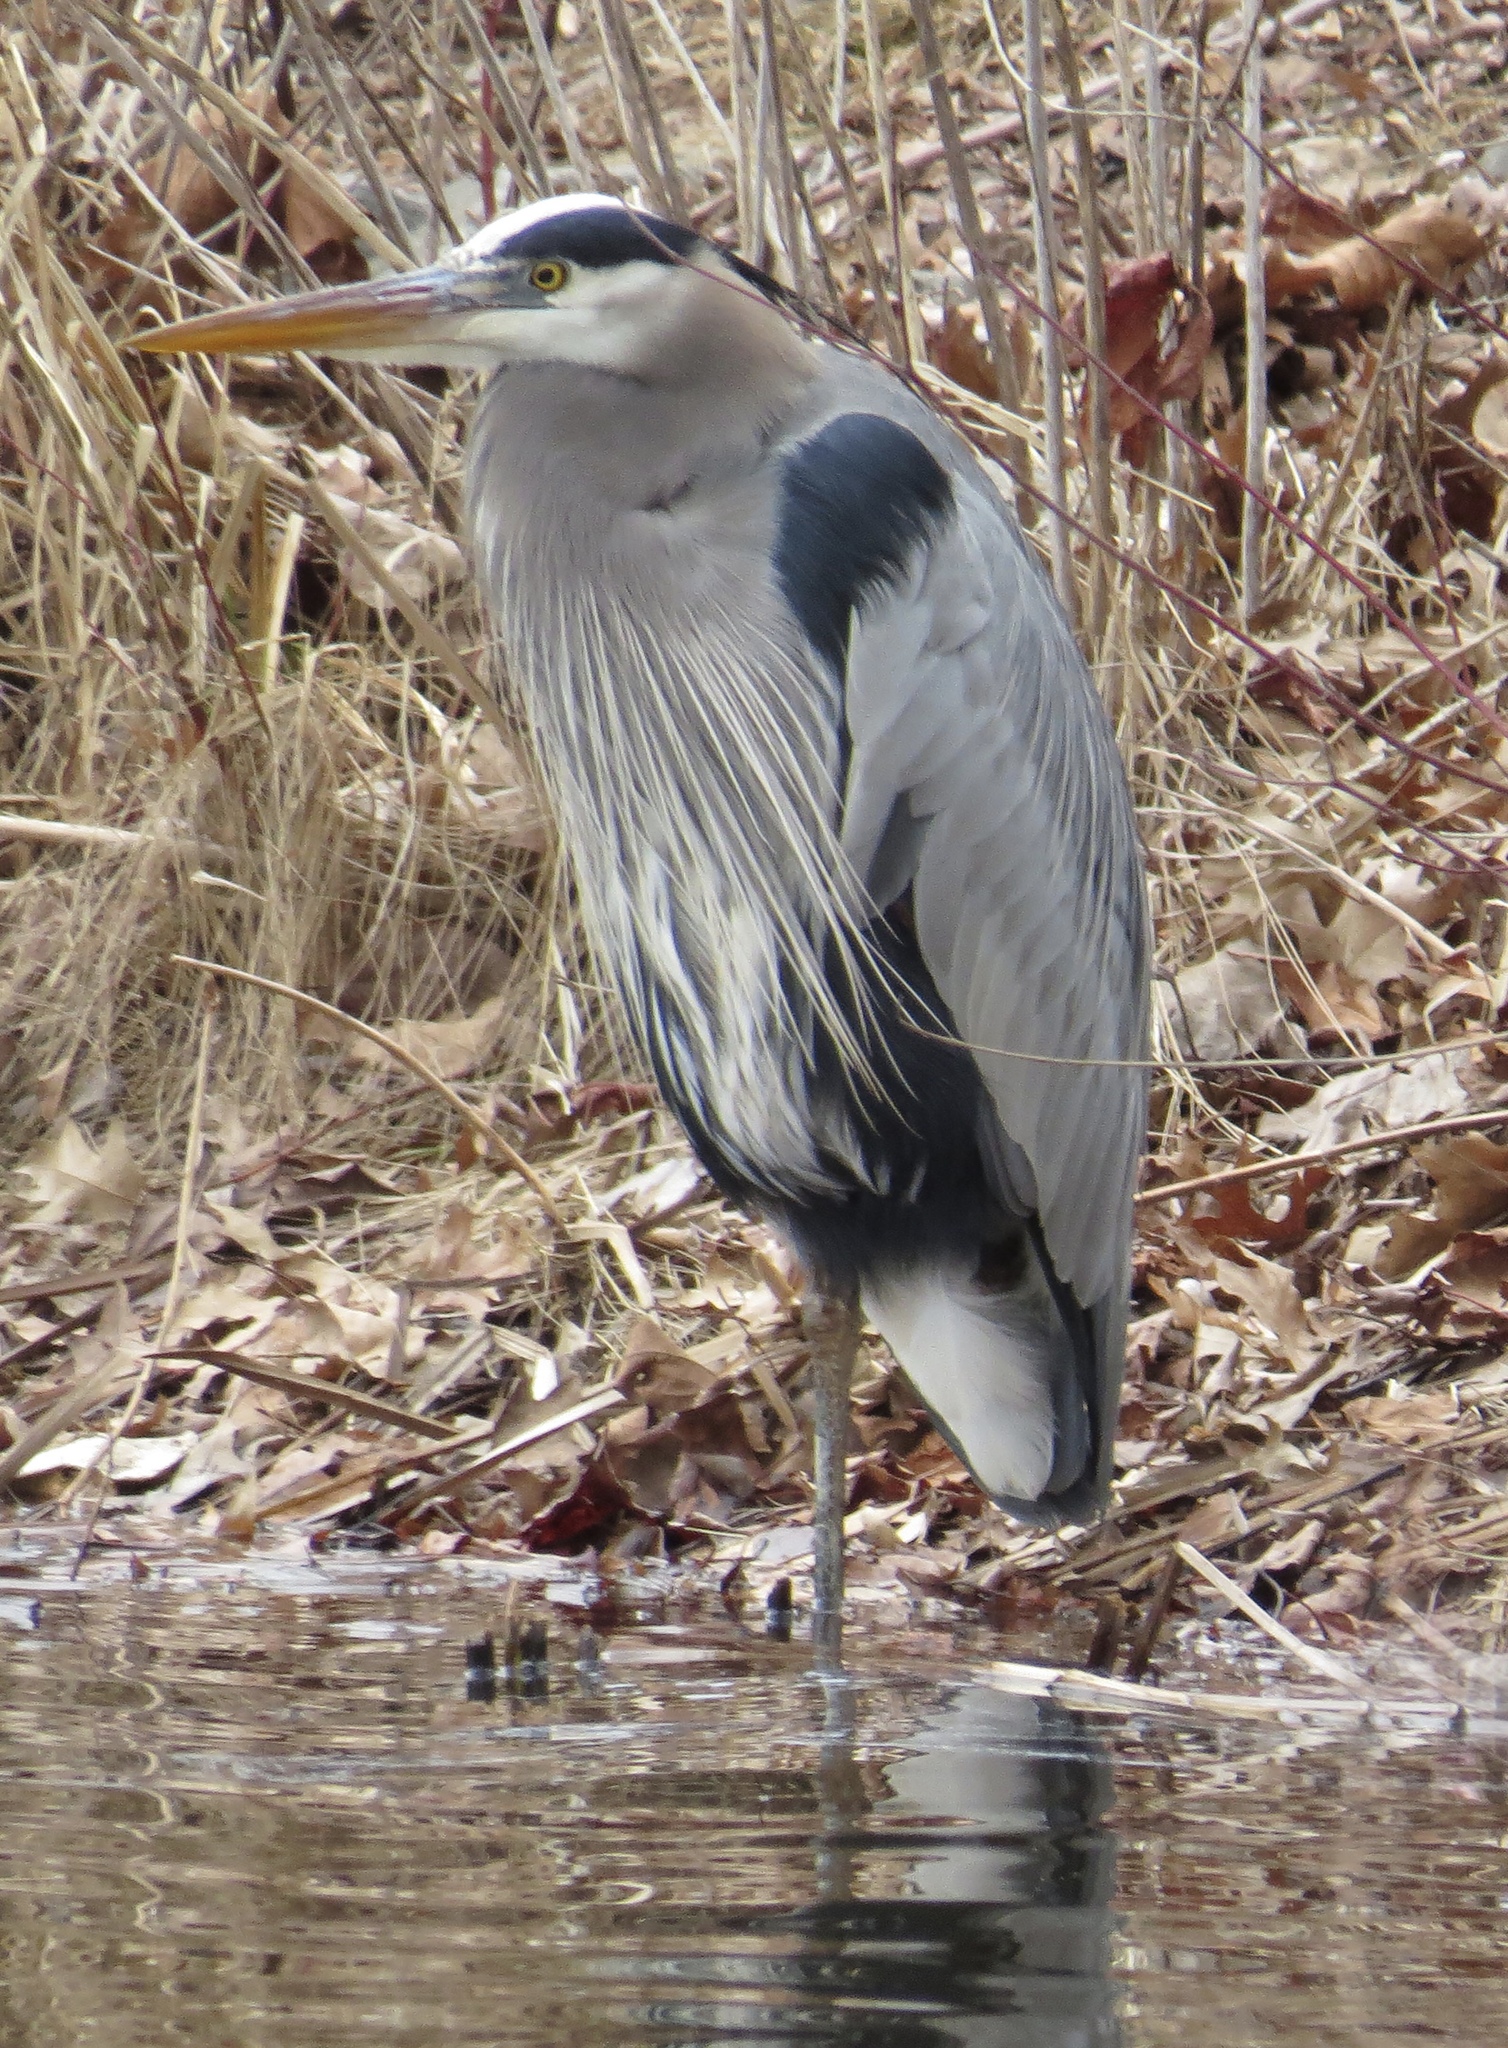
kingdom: Animalia
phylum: Chordata
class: Aves
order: Pelecaniformes
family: Ardeidae
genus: Ardea
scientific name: Ardea herodias
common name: Great blue heron
